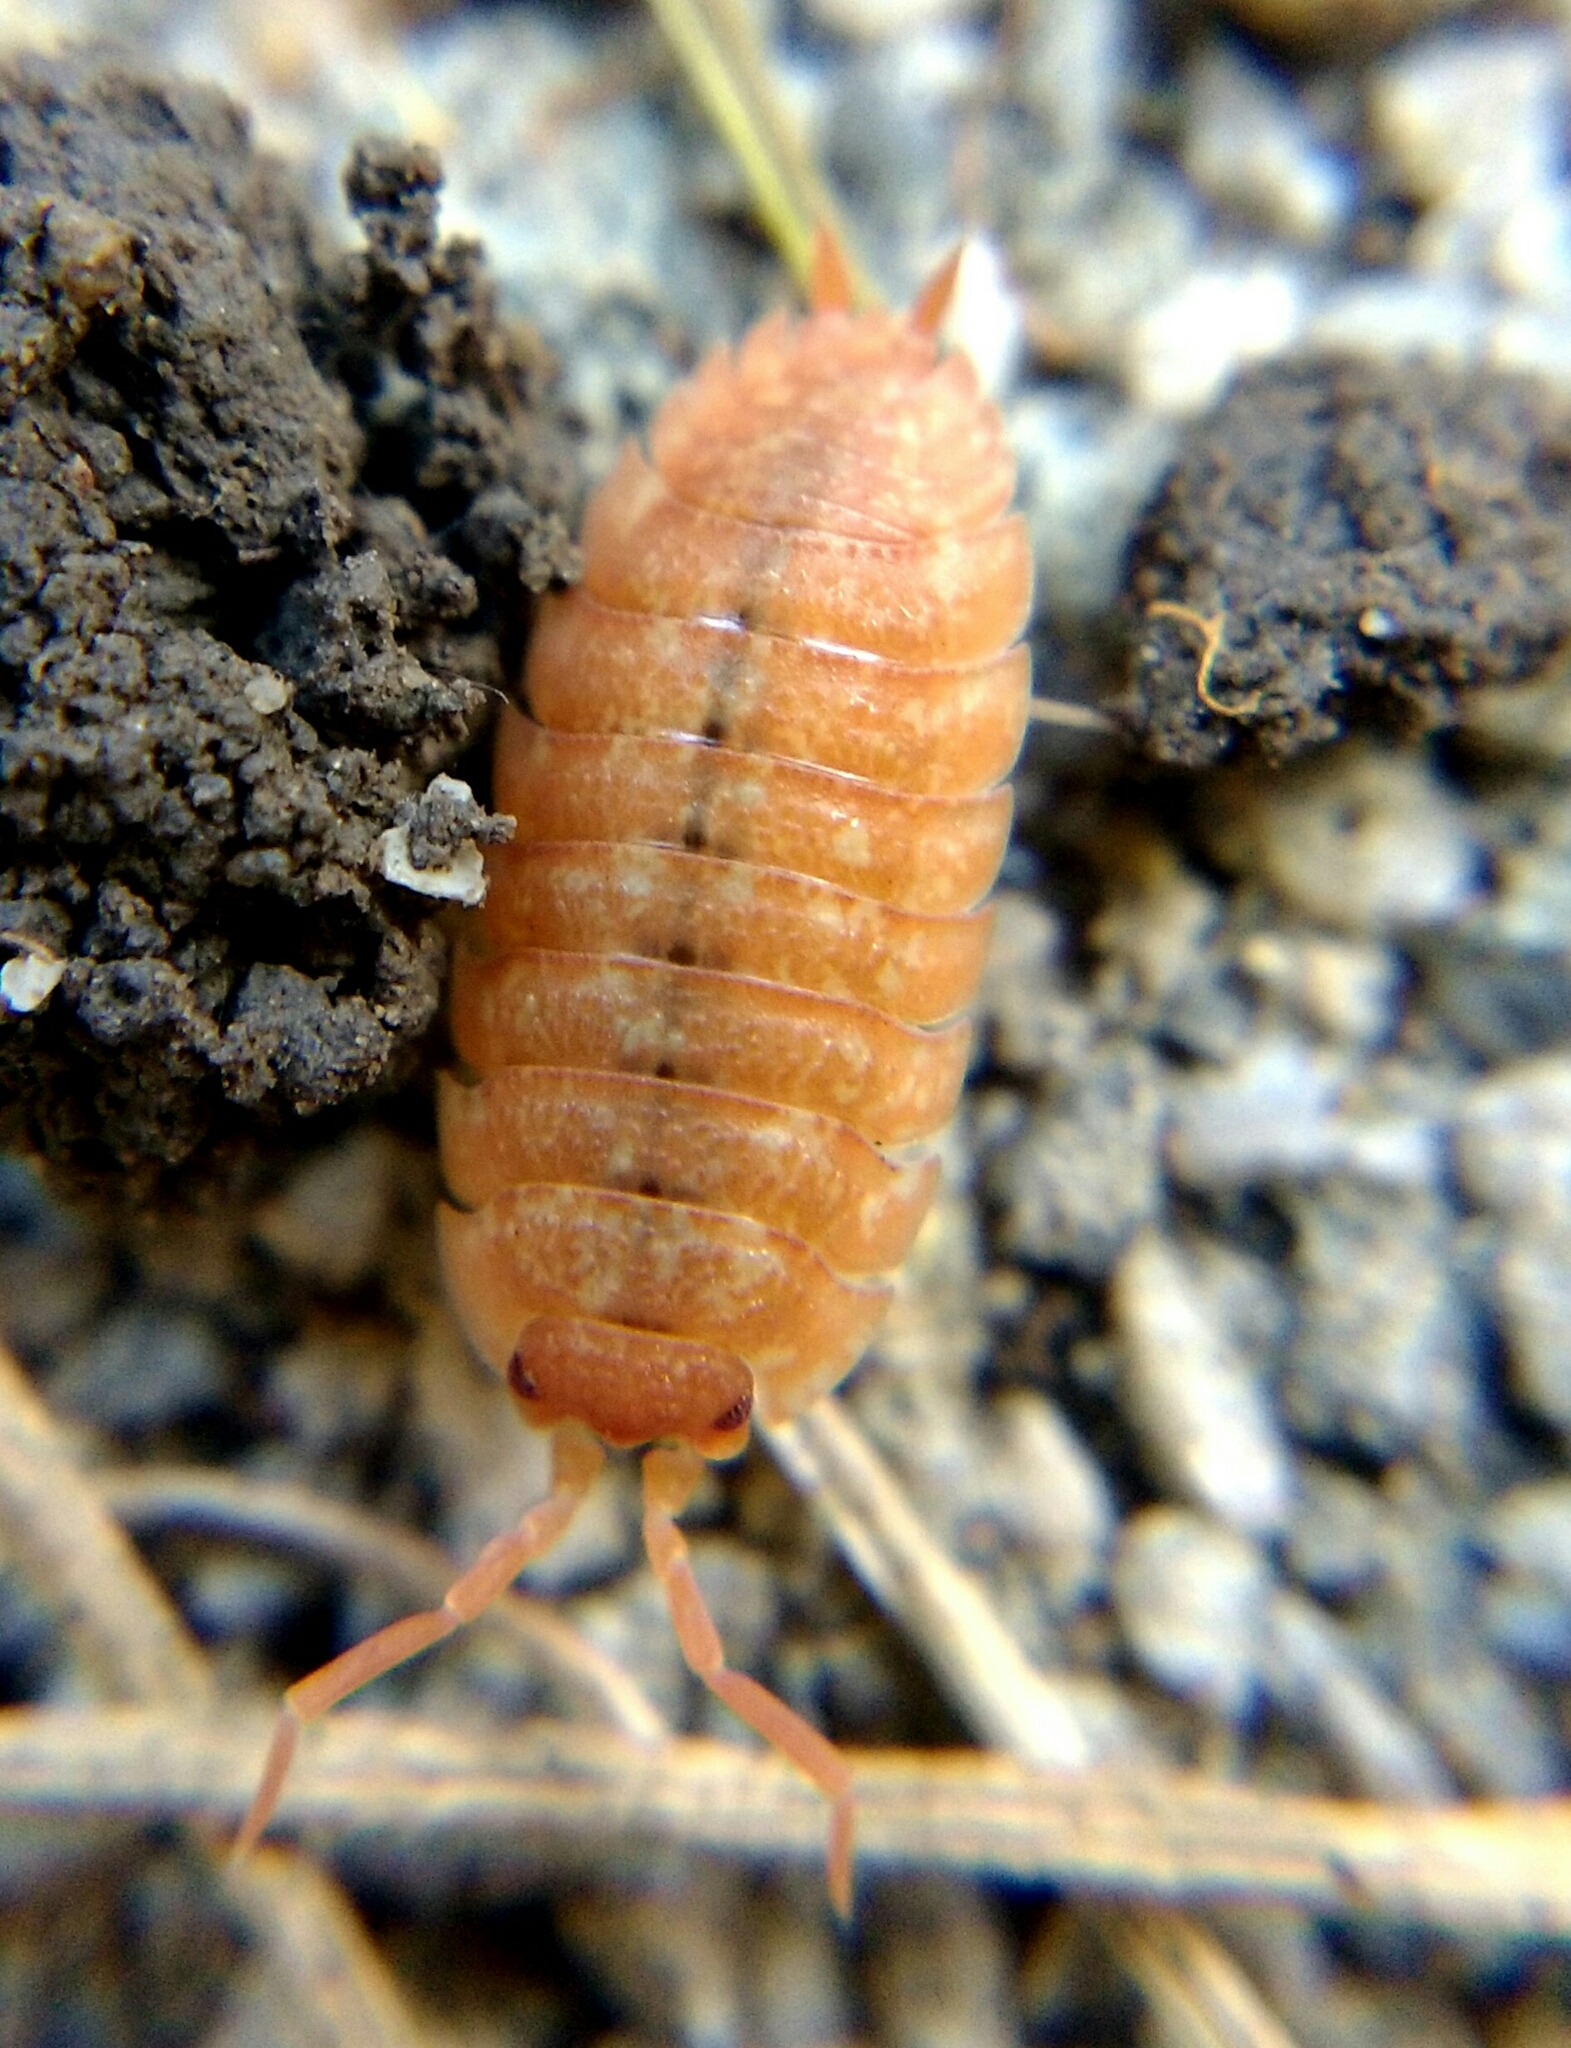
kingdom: Animalia
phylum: Arthropoda
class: Malacostraca
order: Isopoda
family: Porcellionidae
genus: Porcellio
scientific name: Porcellio scaber
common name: Common rough woodlouse
